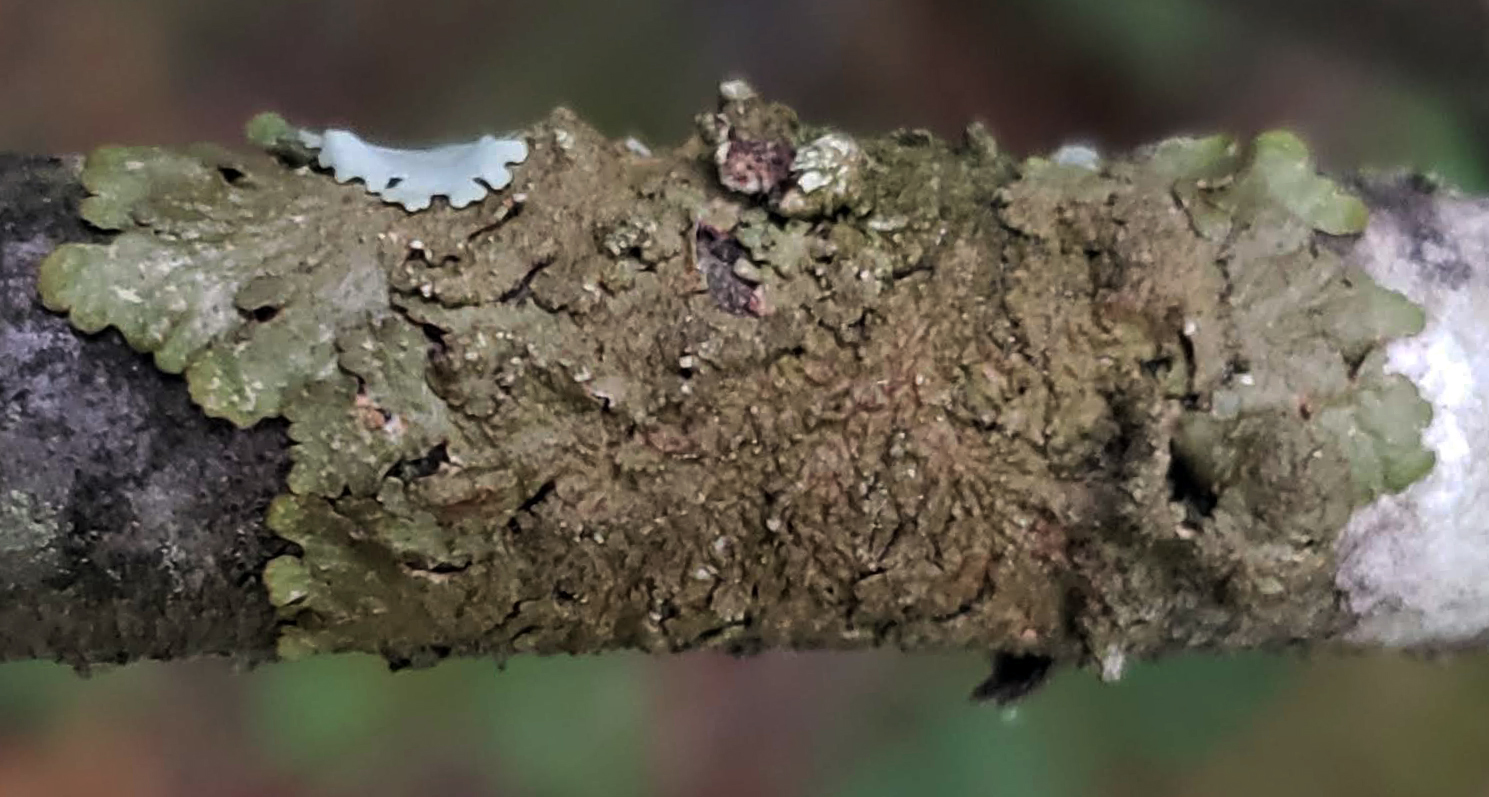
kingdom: Fungi
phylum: Ascomycota
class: Lecanoromycetes
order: Lecanorales
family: Parmeliaceae
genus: Melanelixia
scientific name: Melanelixia subaurifera
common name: Abraded camouflage lichen
